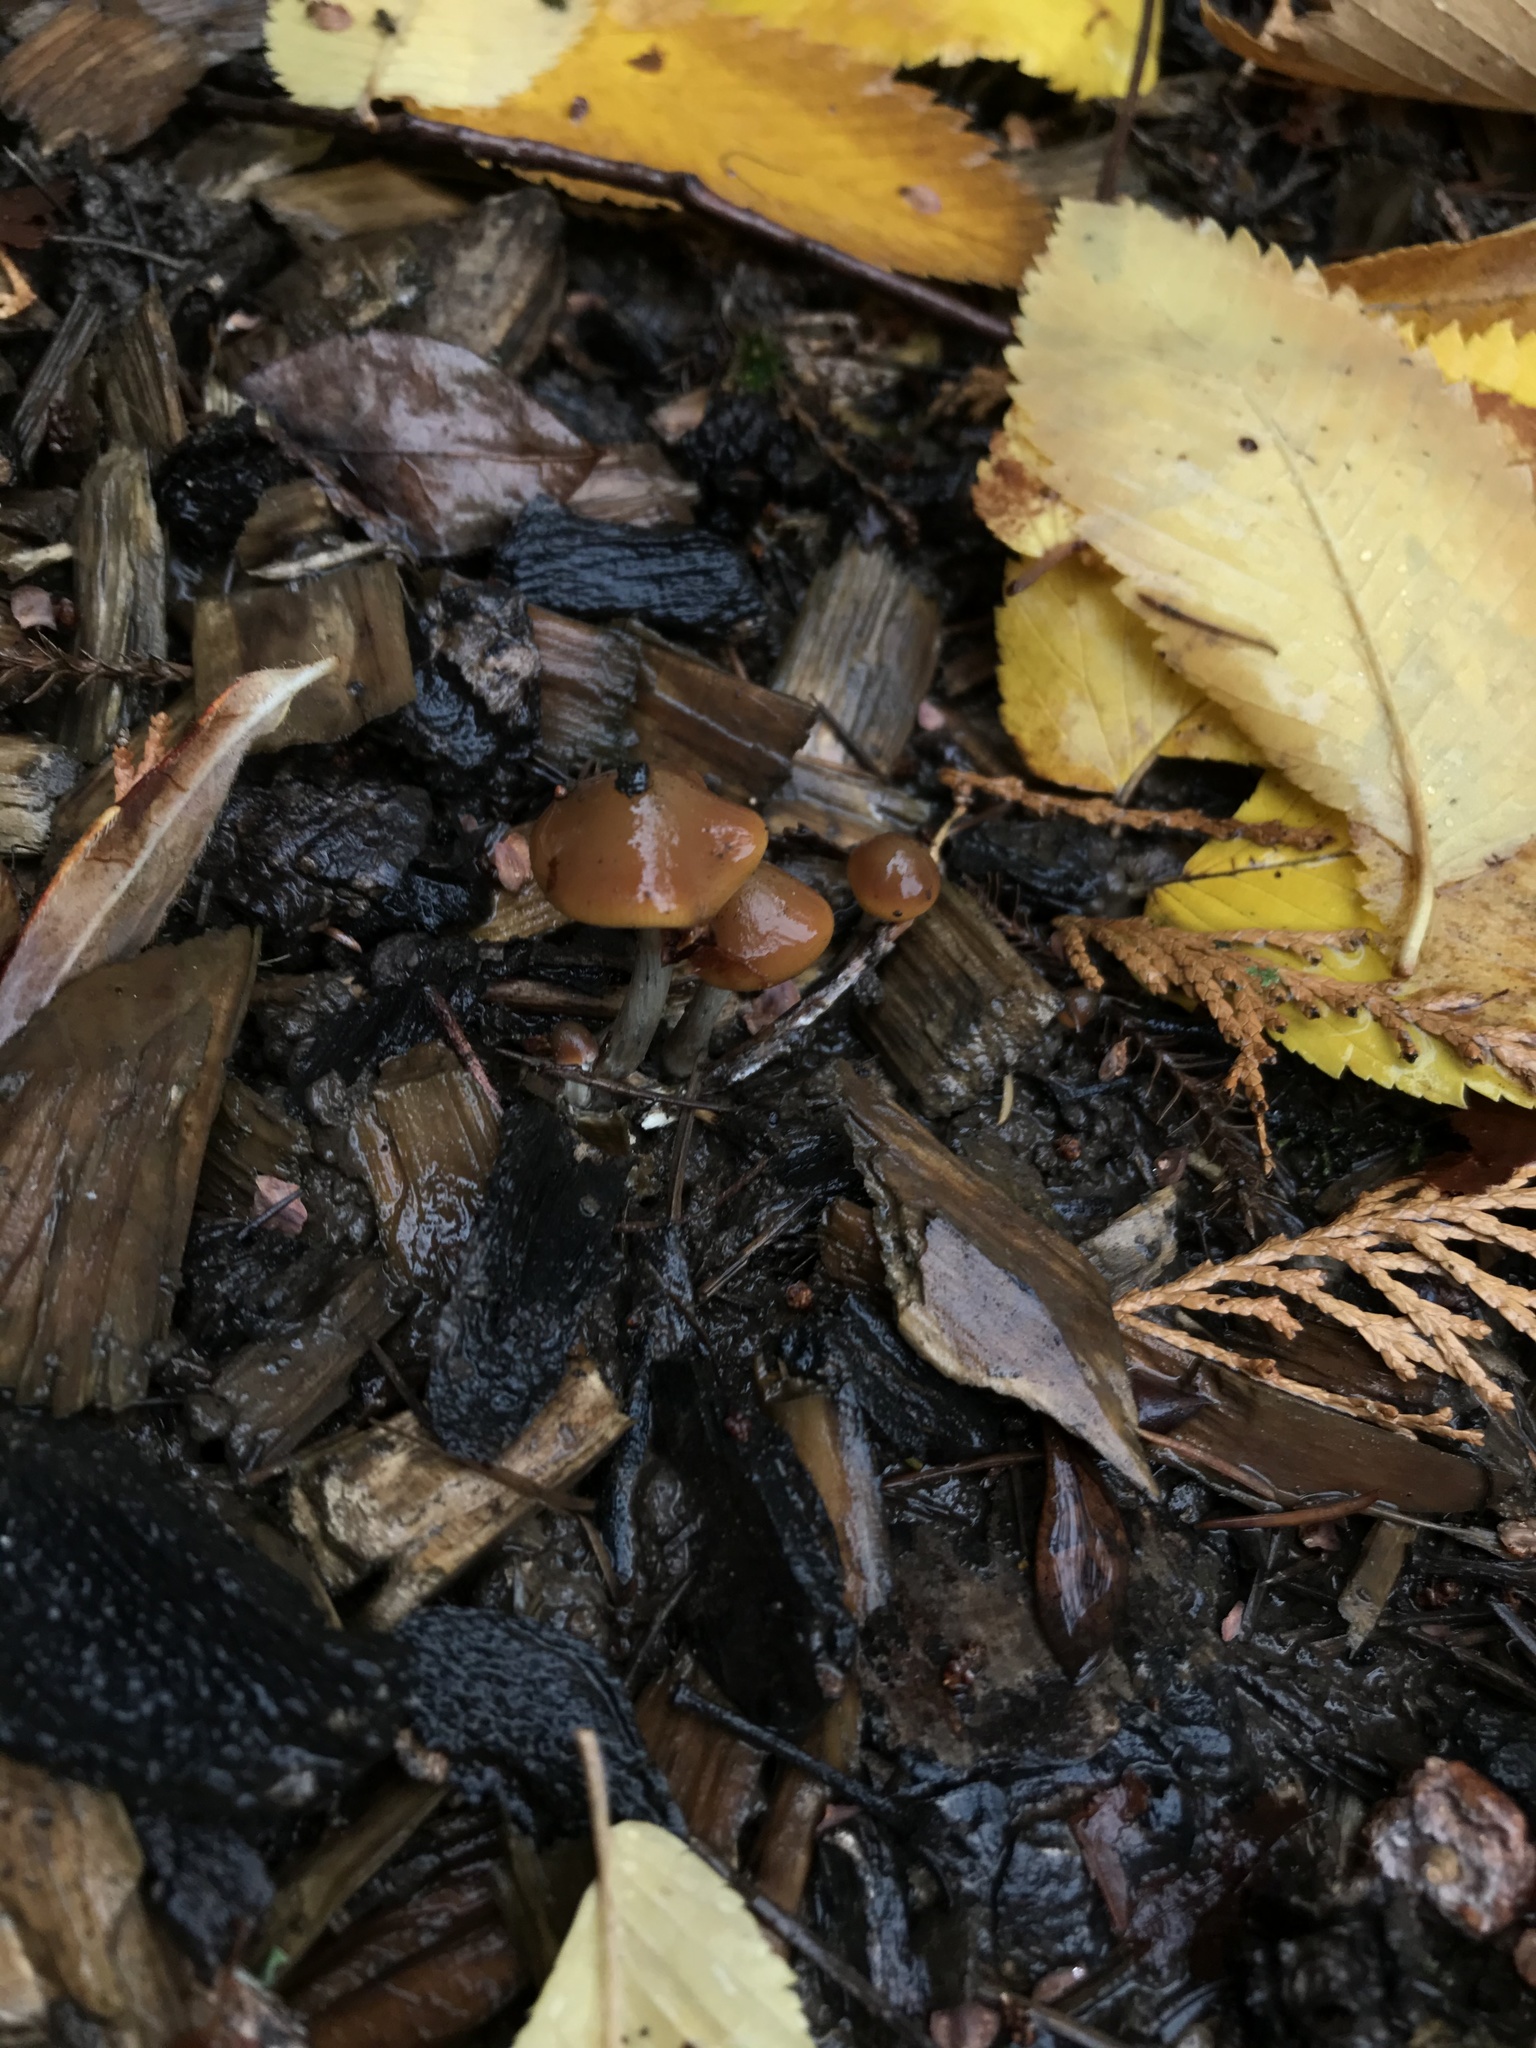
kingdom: Fungi
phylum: Basidiomycota
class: Agaricomycetes
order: Agaricales
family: Hymenogastraceae
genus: Psilocybe
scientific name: Psilocybe cyanescens
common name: Blueleg brownie
